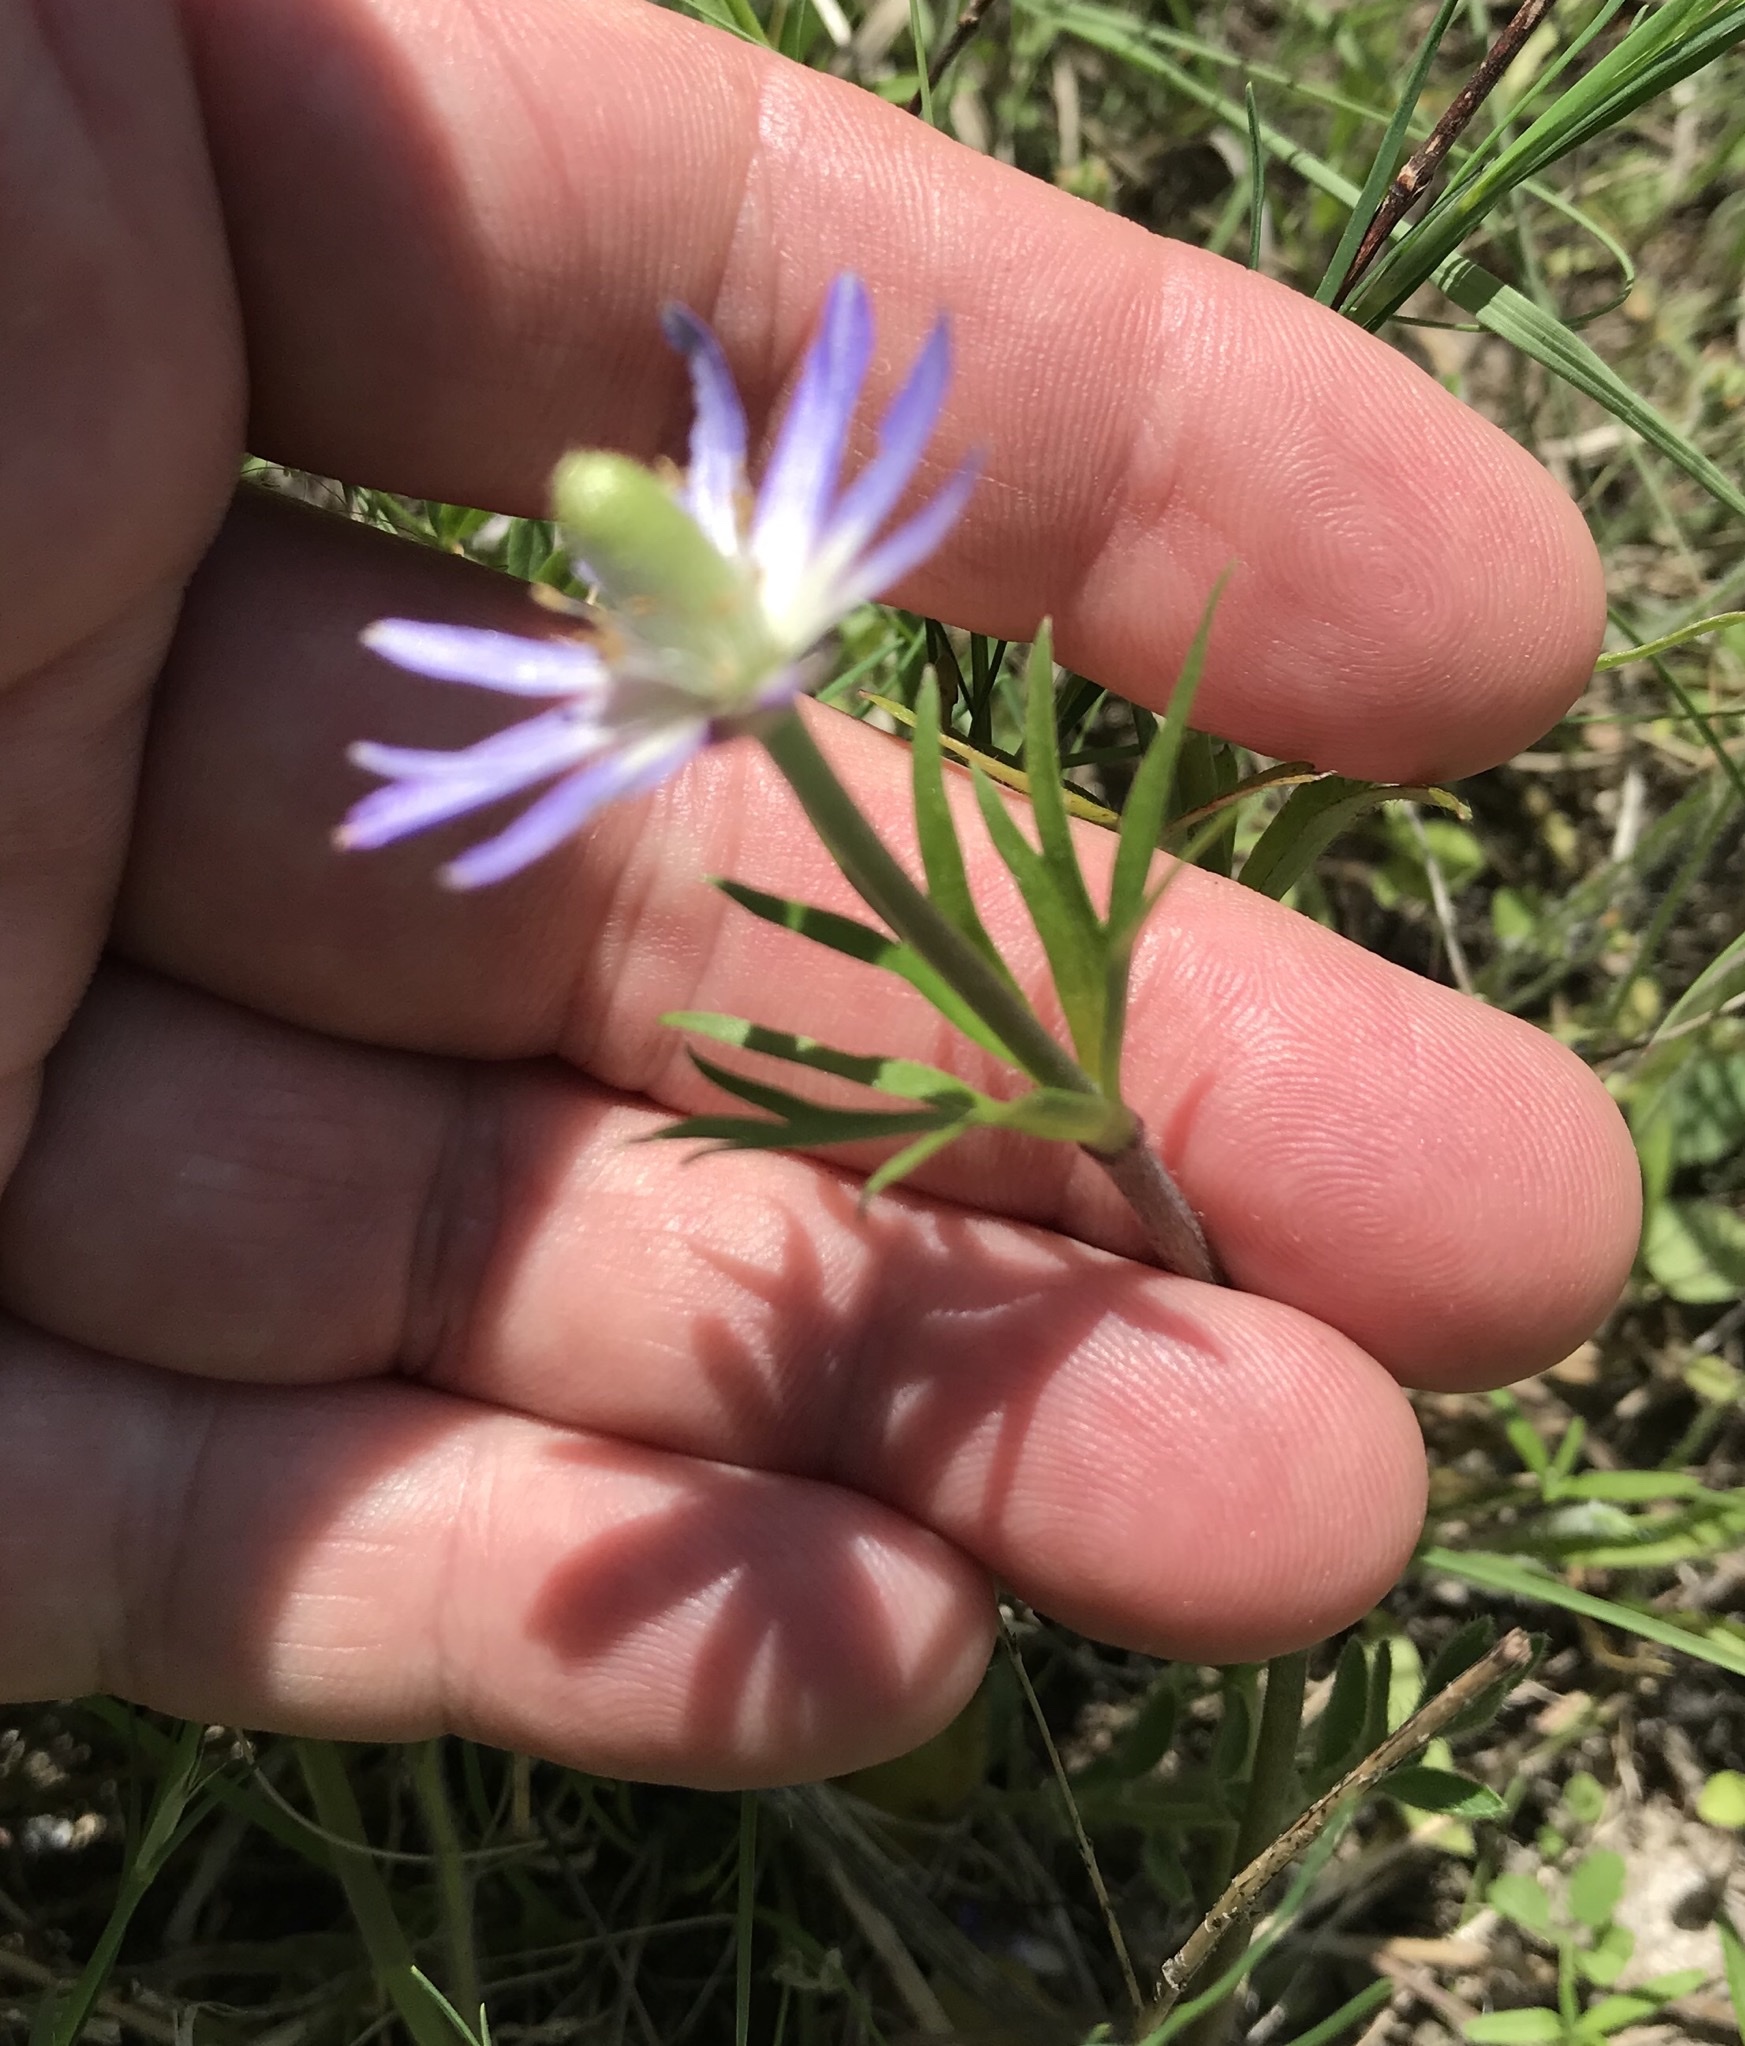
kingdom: Plantae
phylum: Tracheophyta
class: Magnoliopsida
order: Ranunculales
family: Ranunculaceae
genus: Anemone
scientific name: Anemone berlandieri
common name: Ten-petal anemone
